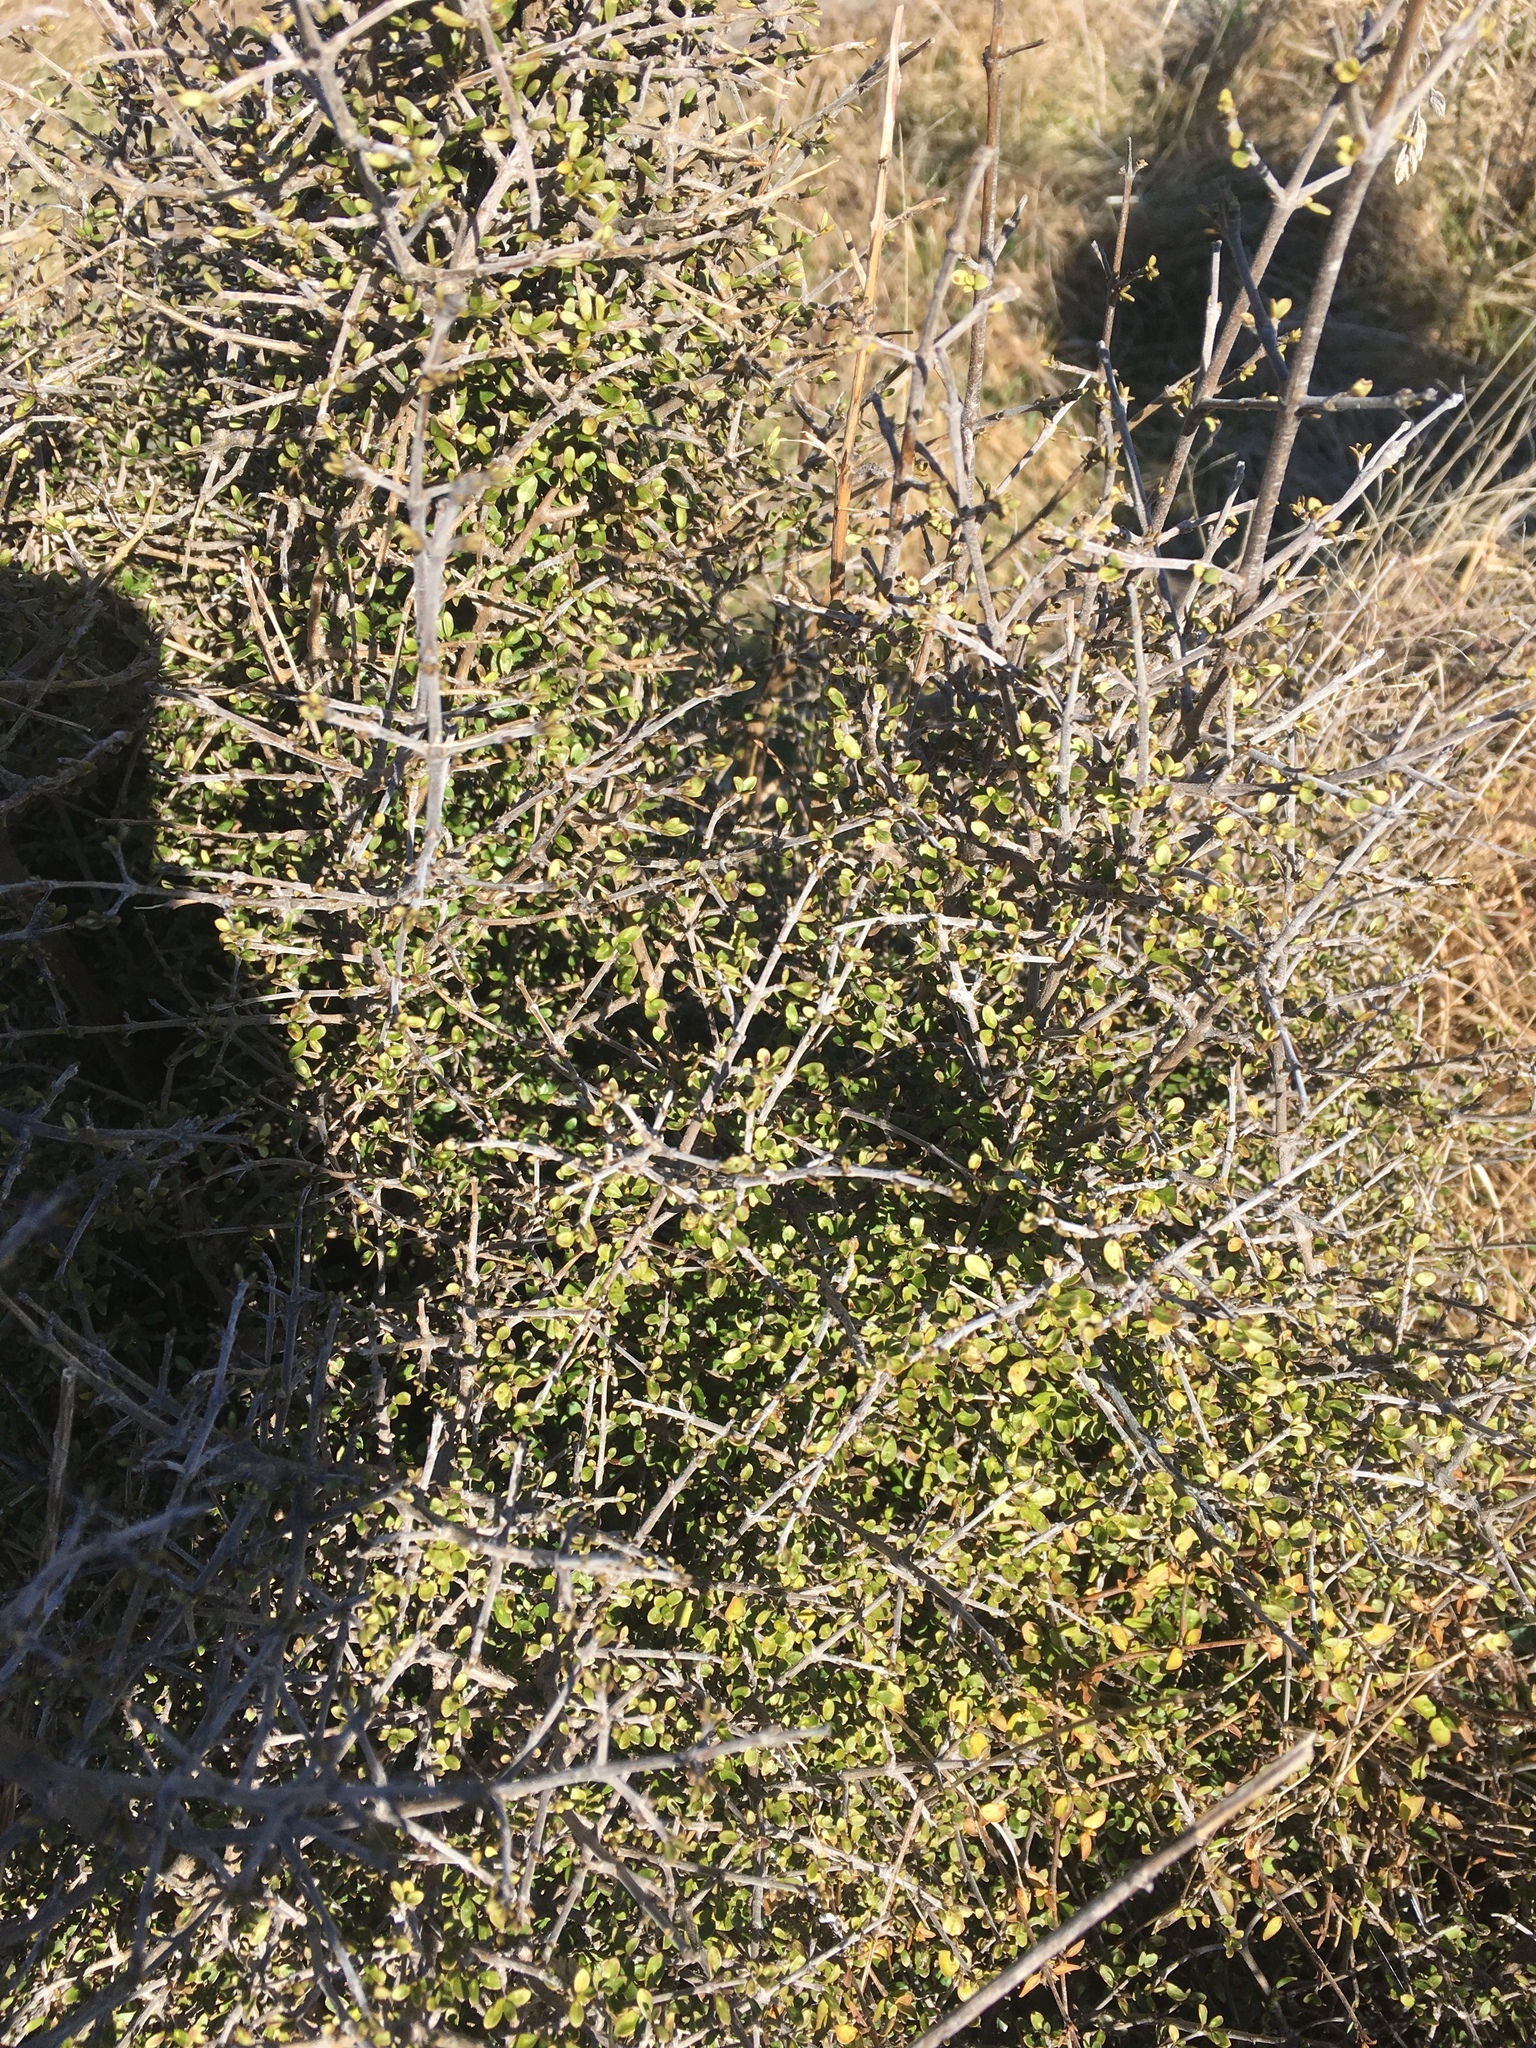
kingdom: Plantae
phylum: Tracheophyta
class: Magnoliopsida
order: Gentianales
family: Rubiaceae
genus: Coprosma
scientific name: Coprosma dumosa
